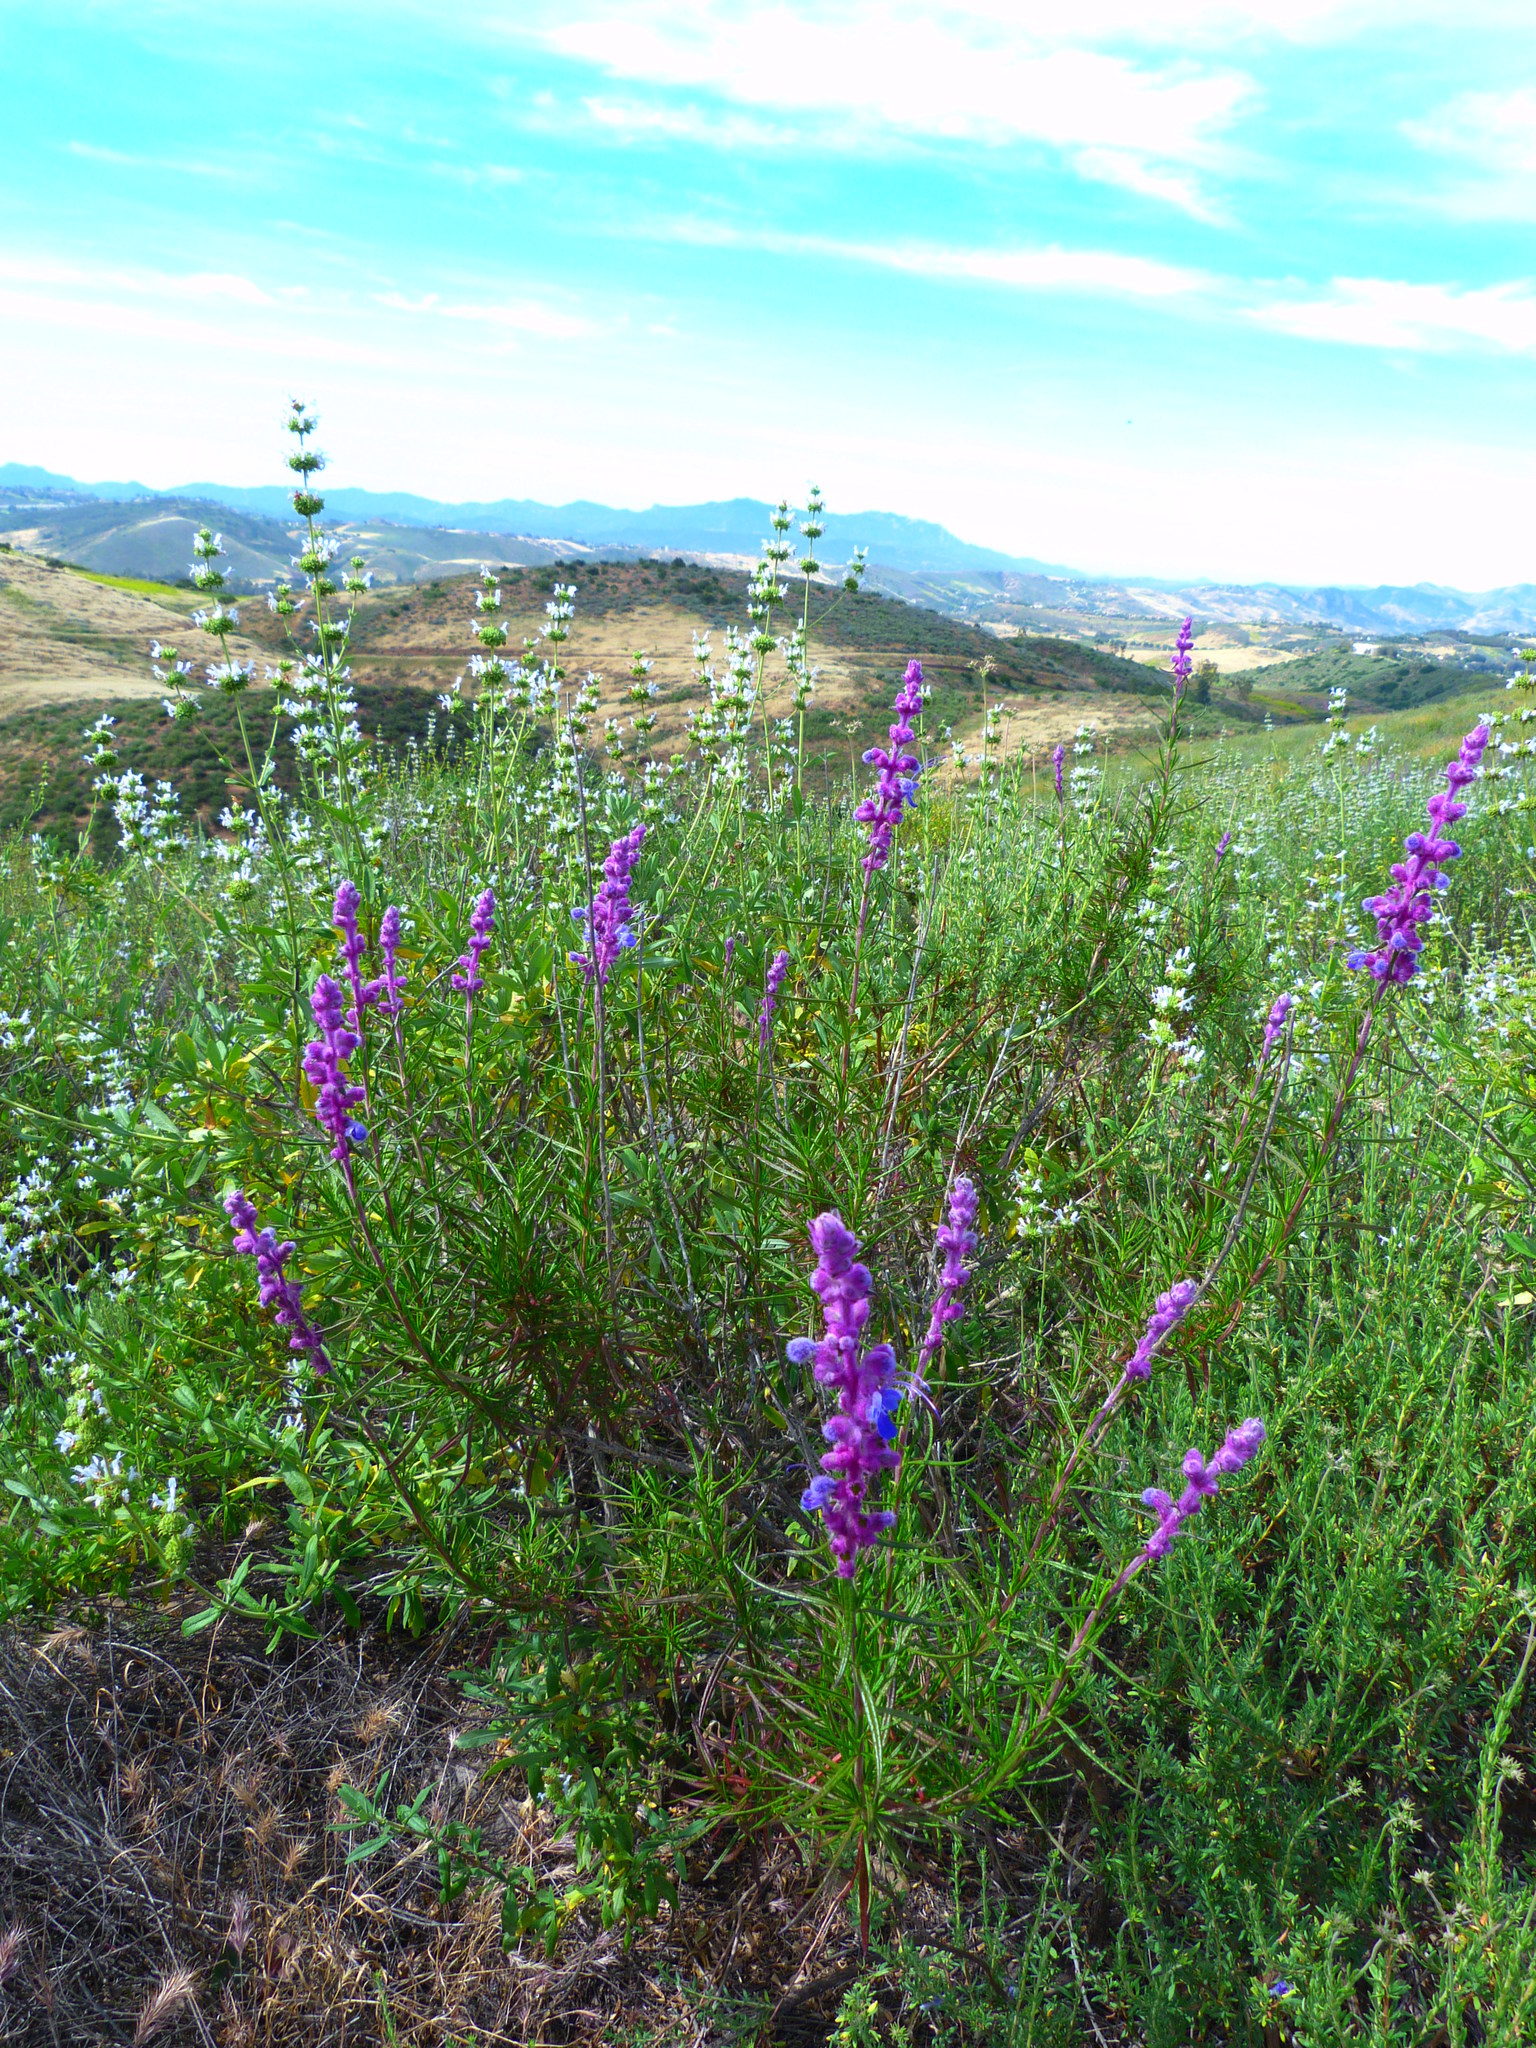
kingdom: Plantae
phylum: Tracheophyta
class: Magnoliopsida
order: Lamiales
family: Lamiaceae
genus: Trichostema
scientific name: Trichostema lanatum
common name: Woolly bluecurls
